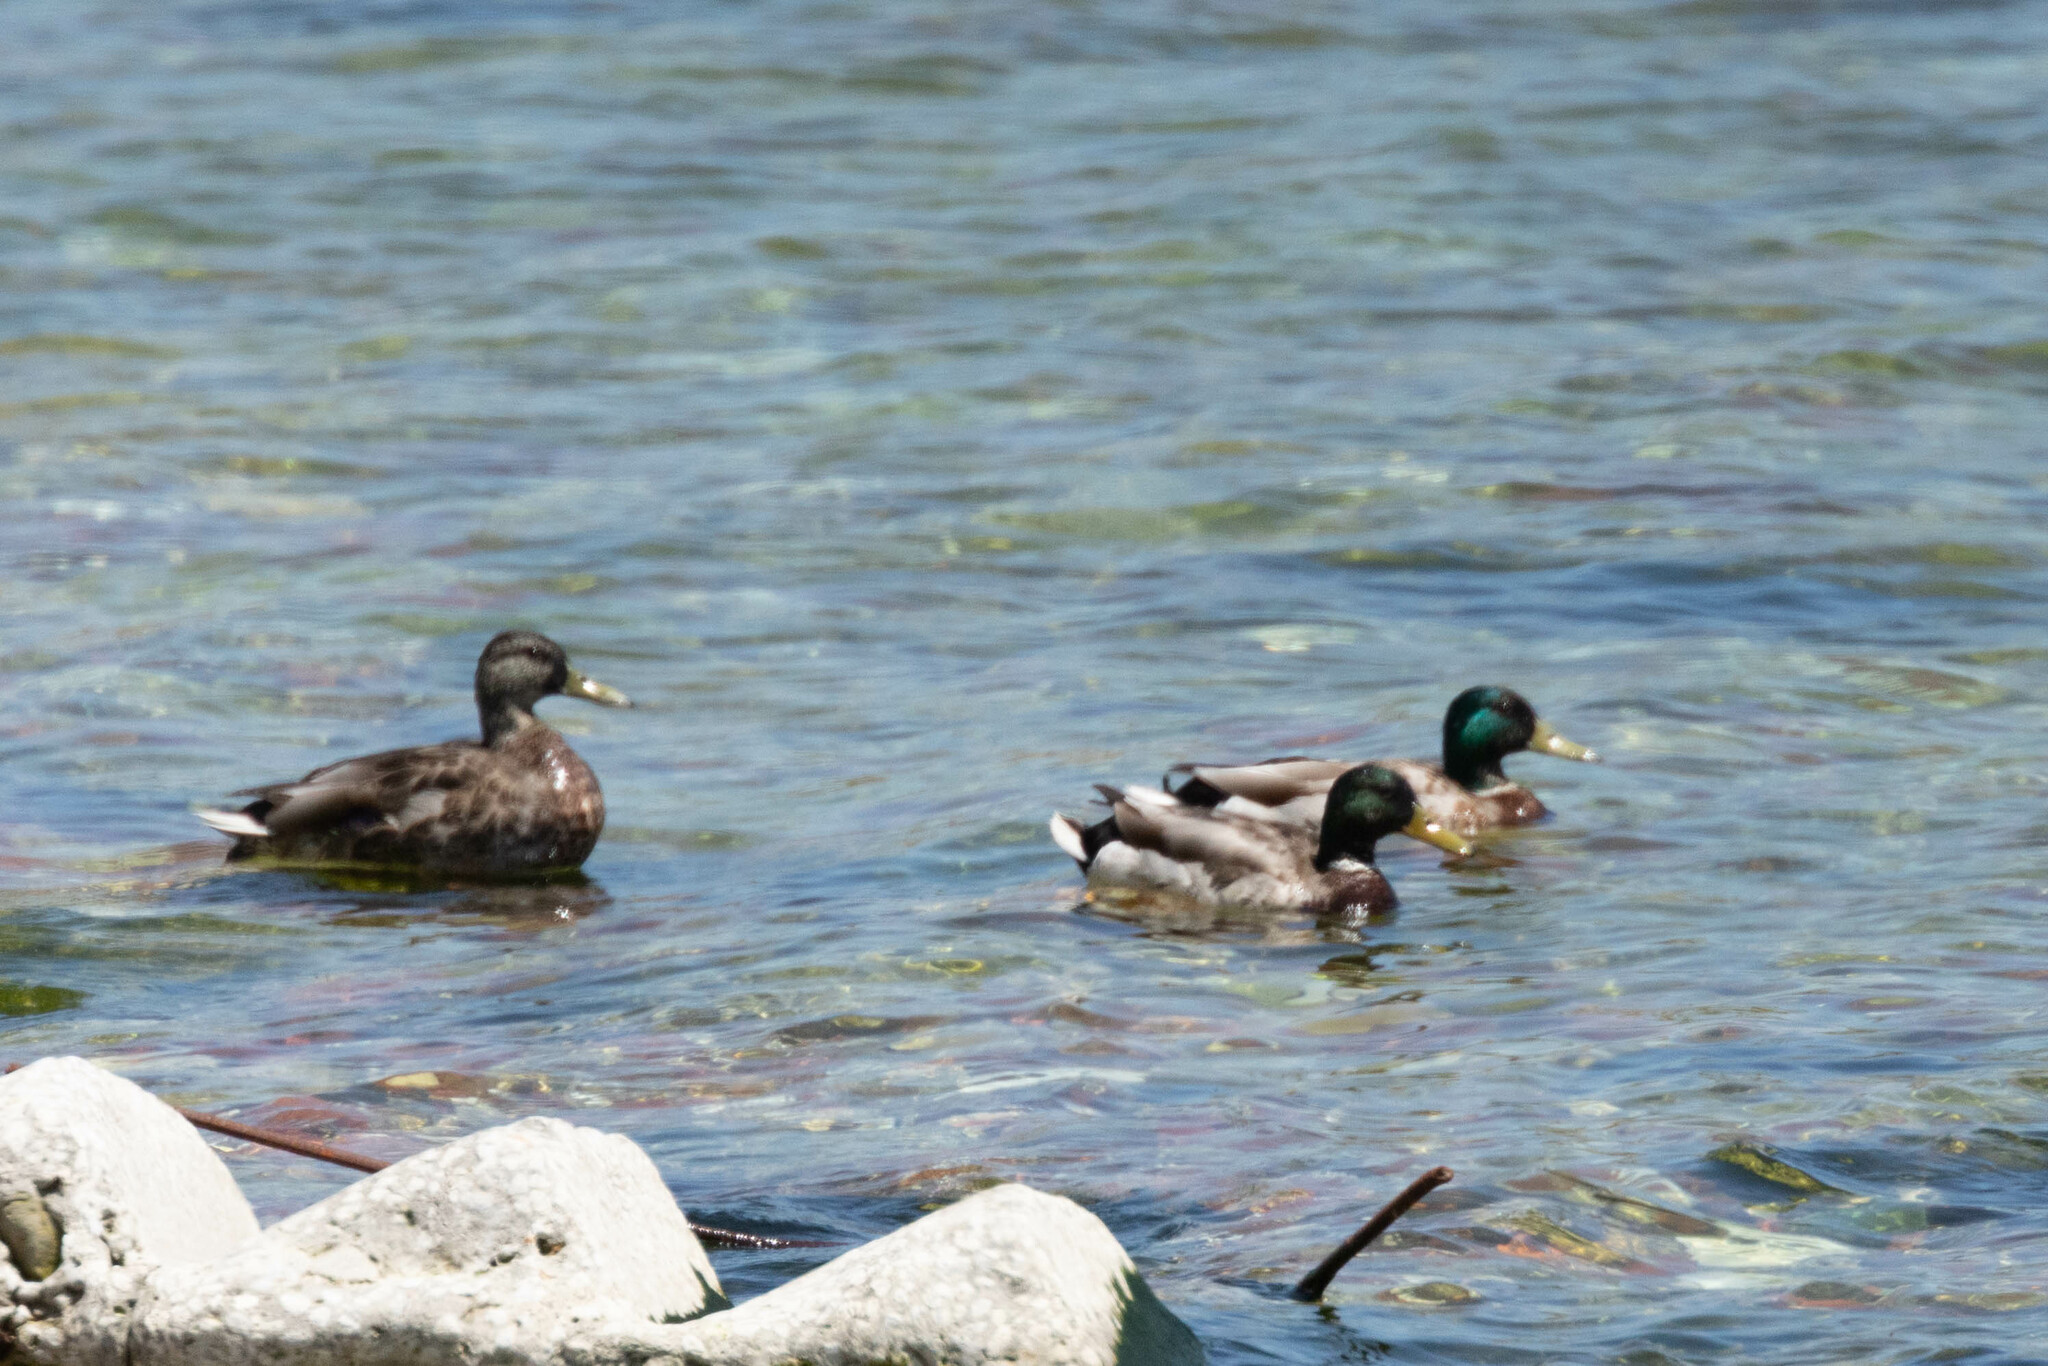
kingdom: Animalia
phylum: Chordata
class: Aves
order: Anseriformes
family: Anatidae
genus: Anas
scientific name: Anas platyrhynchos
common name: Mallard
